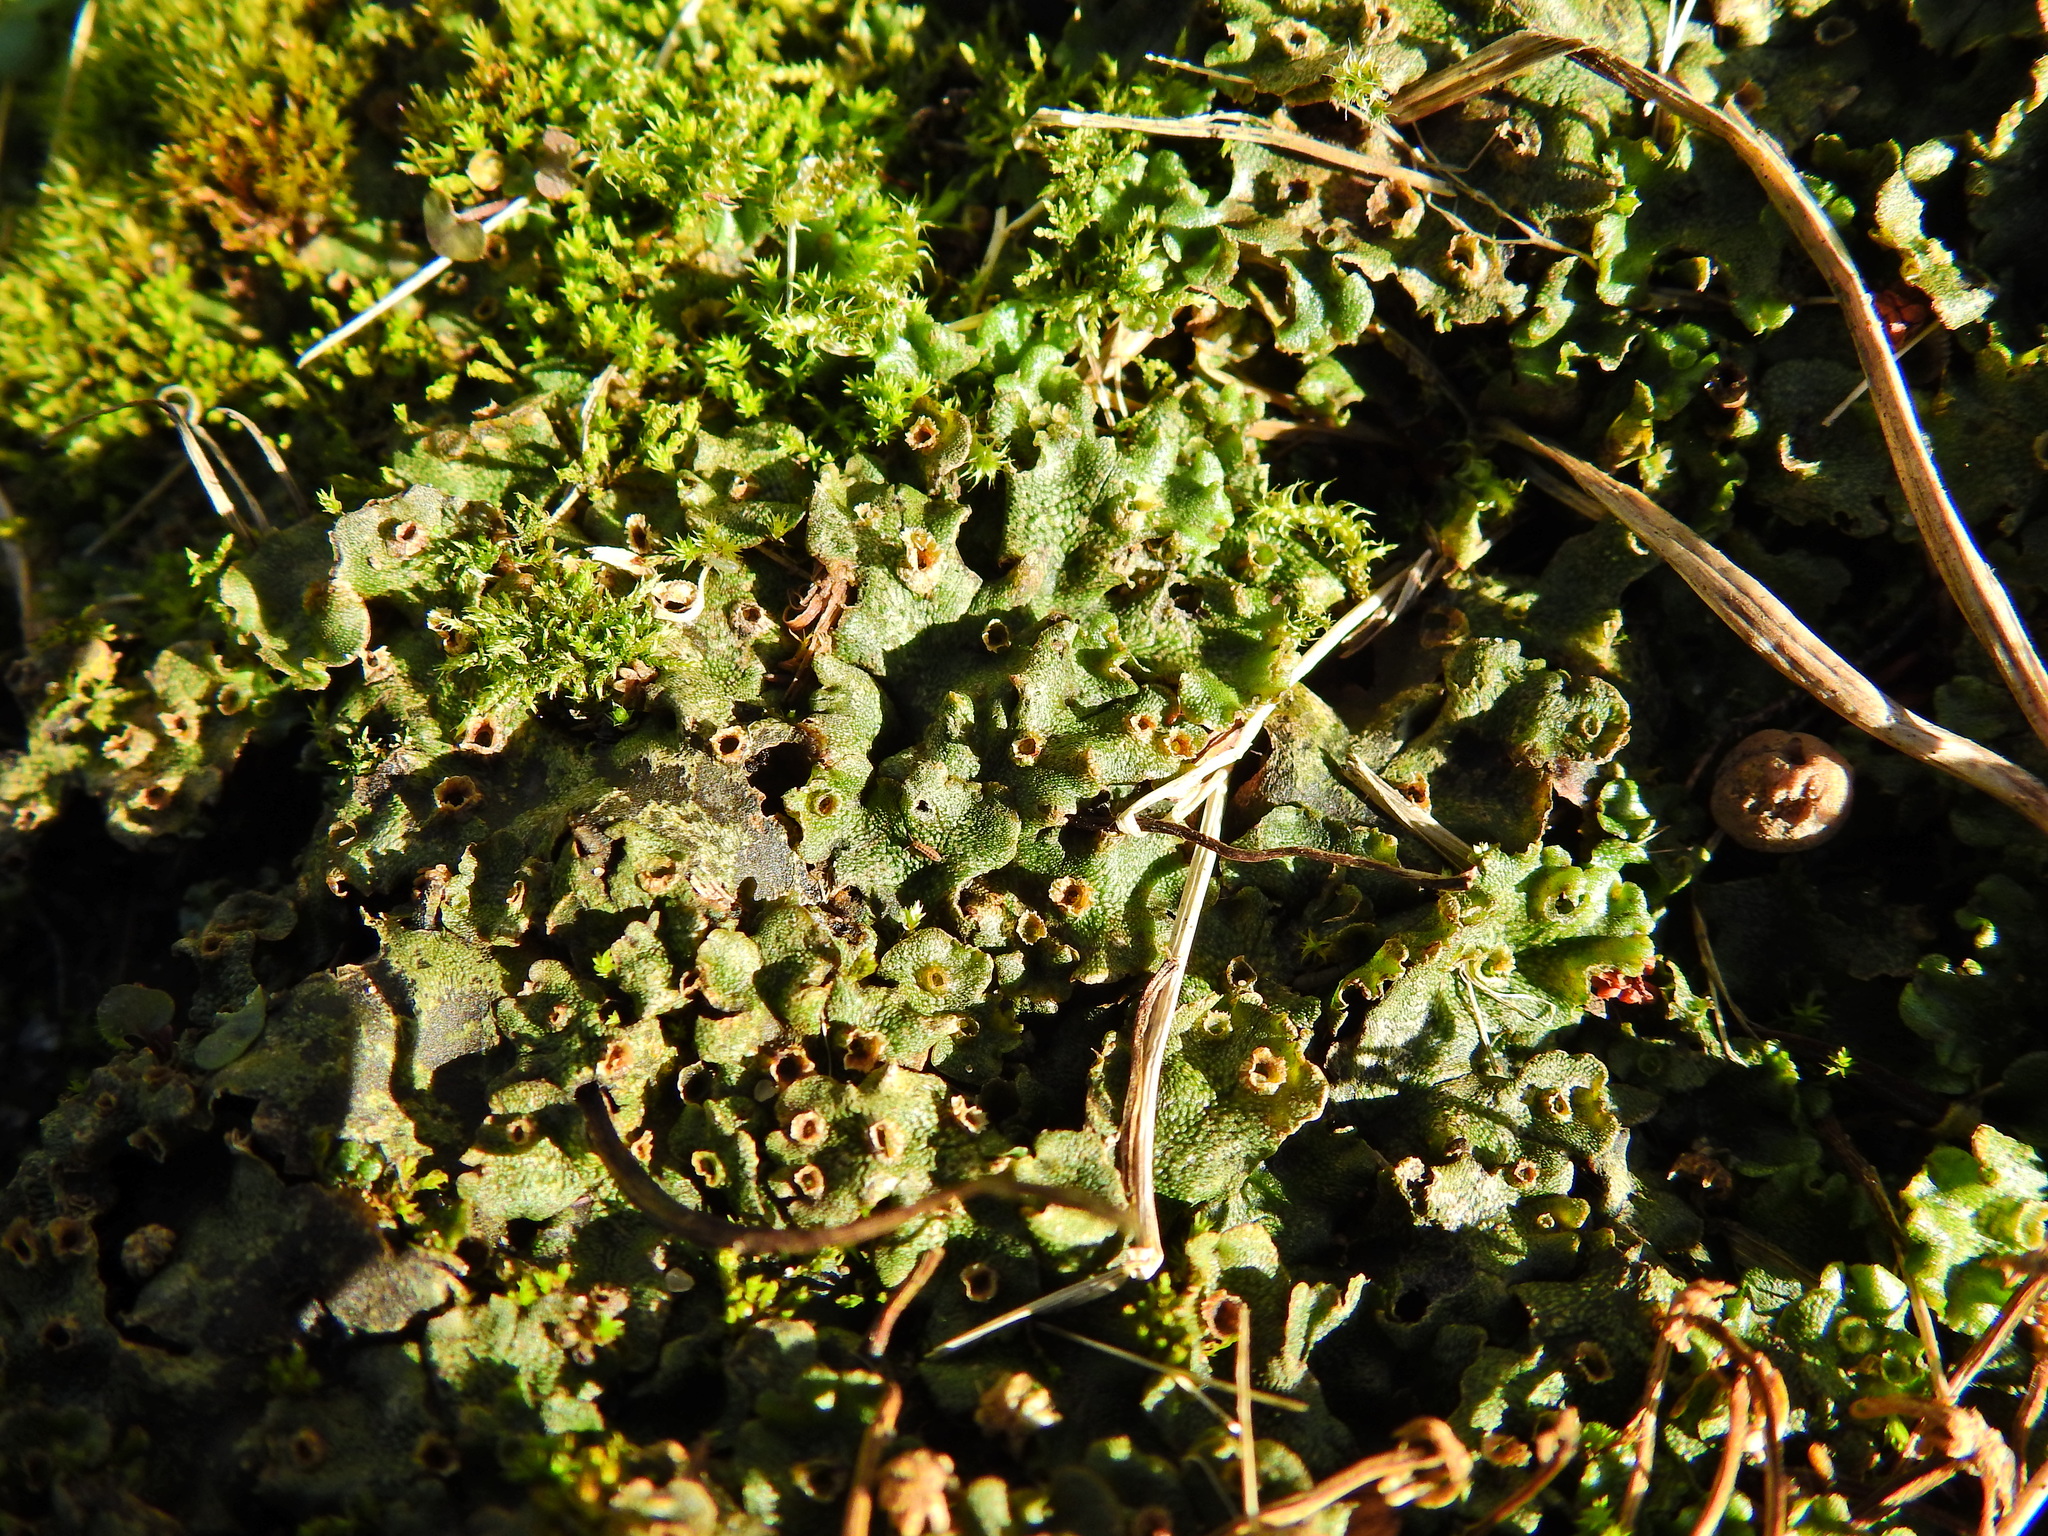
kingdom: Plantae
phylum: Marchantiophyta
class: Marchantiopsida
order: Marchantiales
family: Marchantiaceae
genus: Marchantia
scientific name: Marchantia polymorpha
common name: Common liverwort
